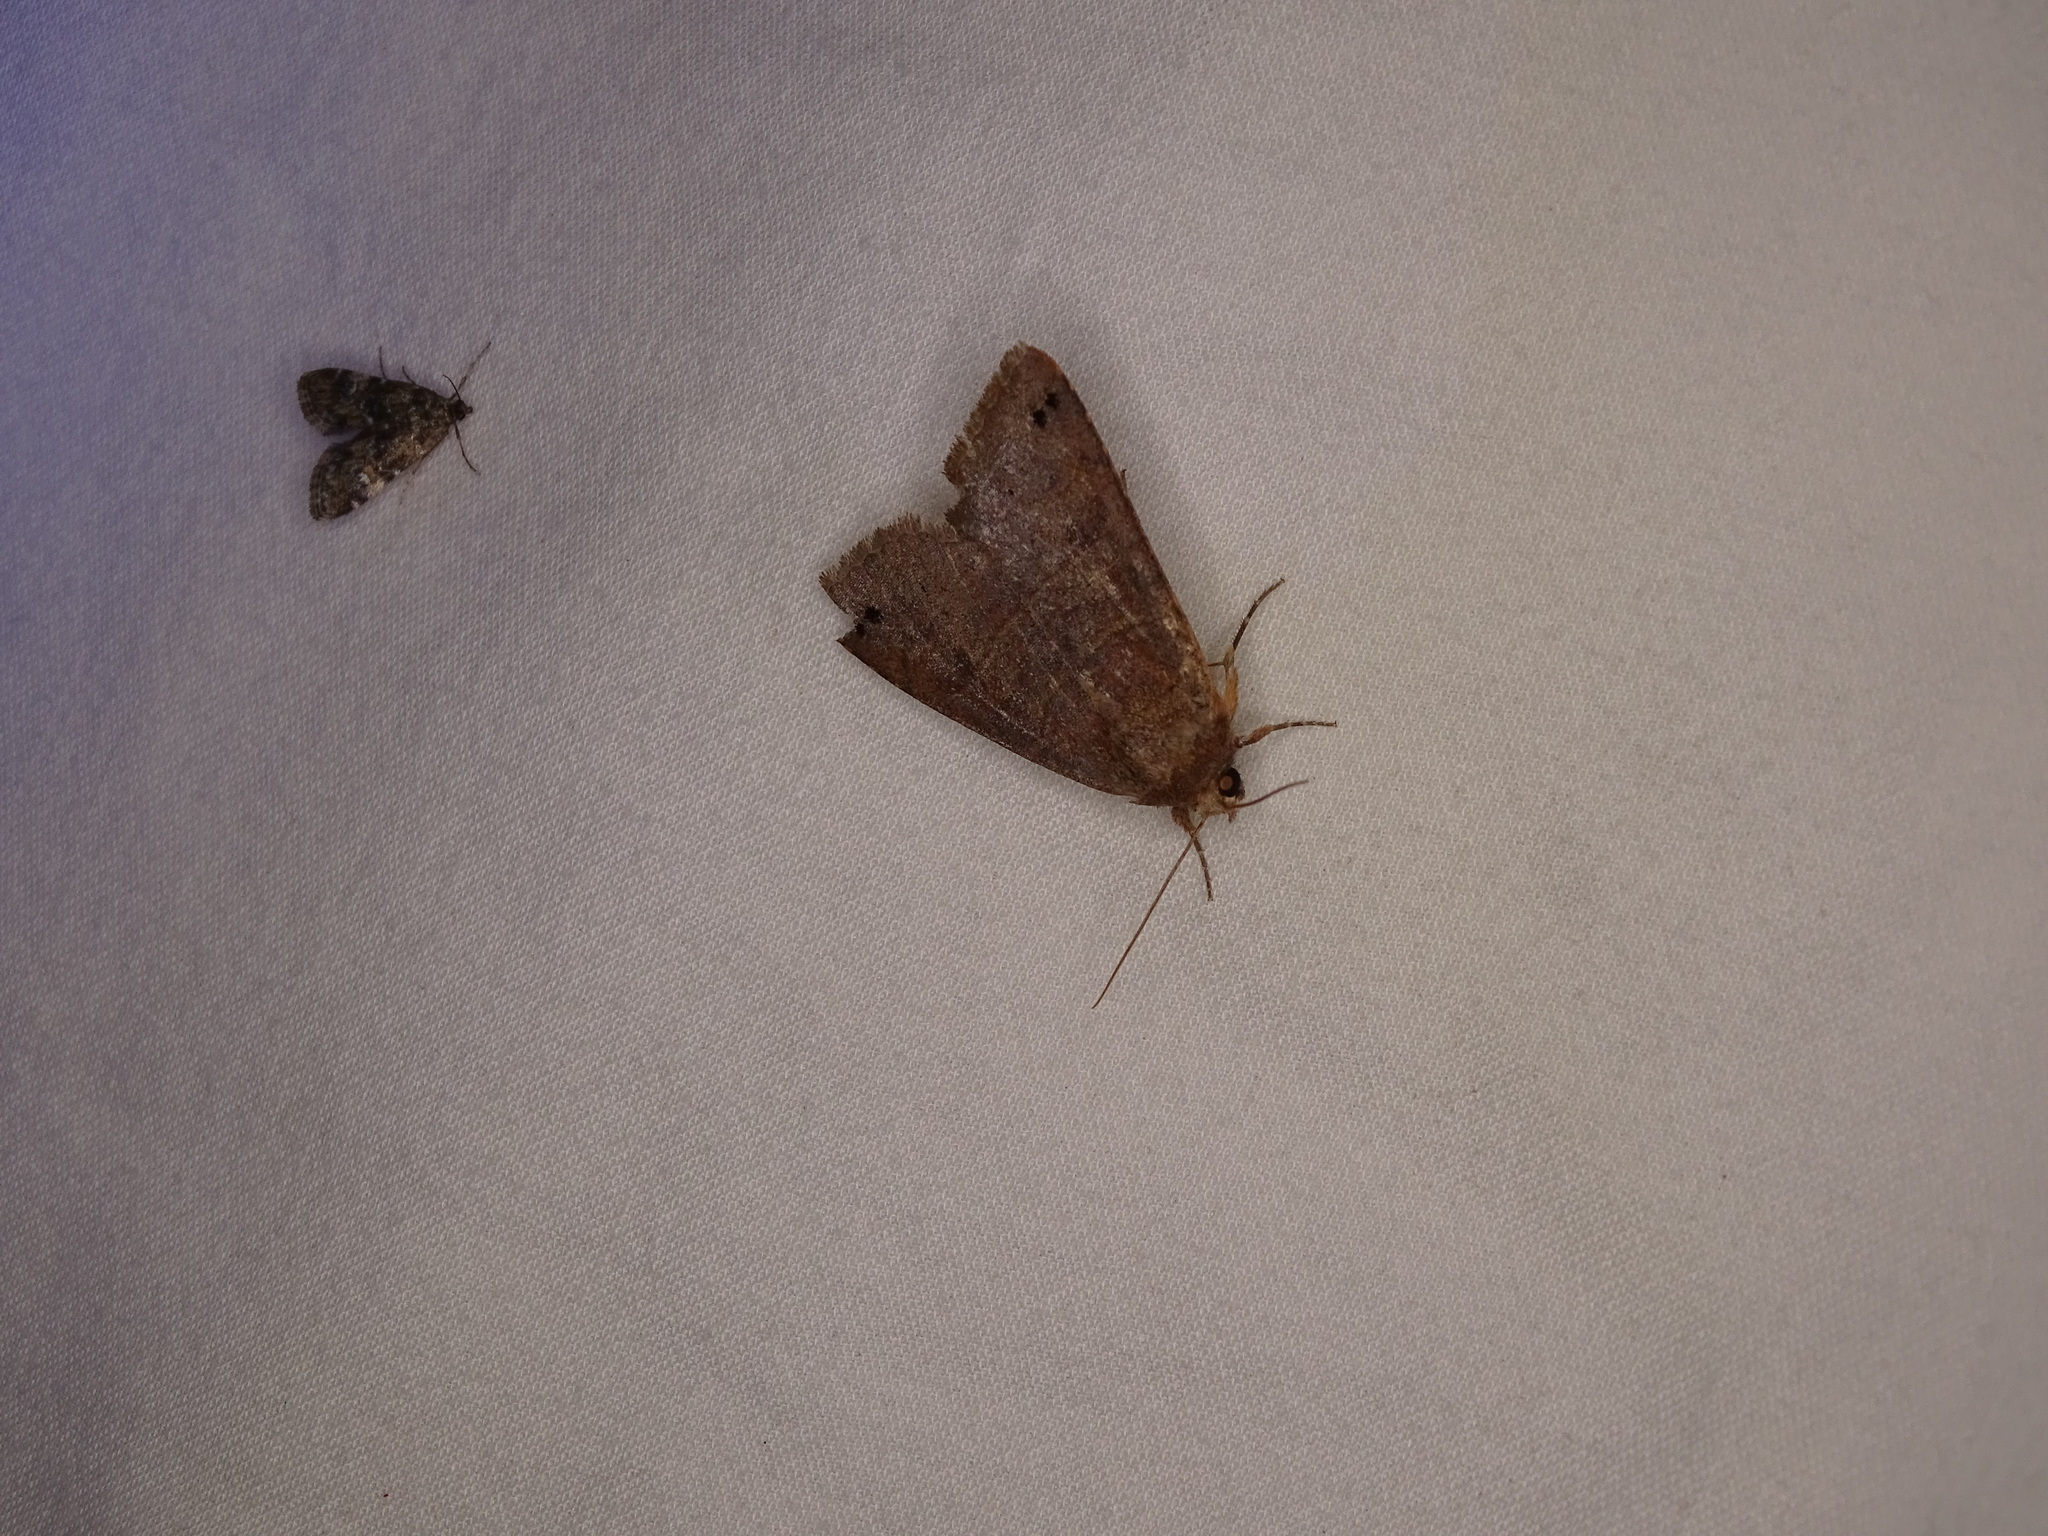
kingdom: Animalia
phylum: Arthropoda
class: Insecta
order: Lepidoptera
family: Erebidae
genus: Cissusa
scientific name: Cissusa spadix
